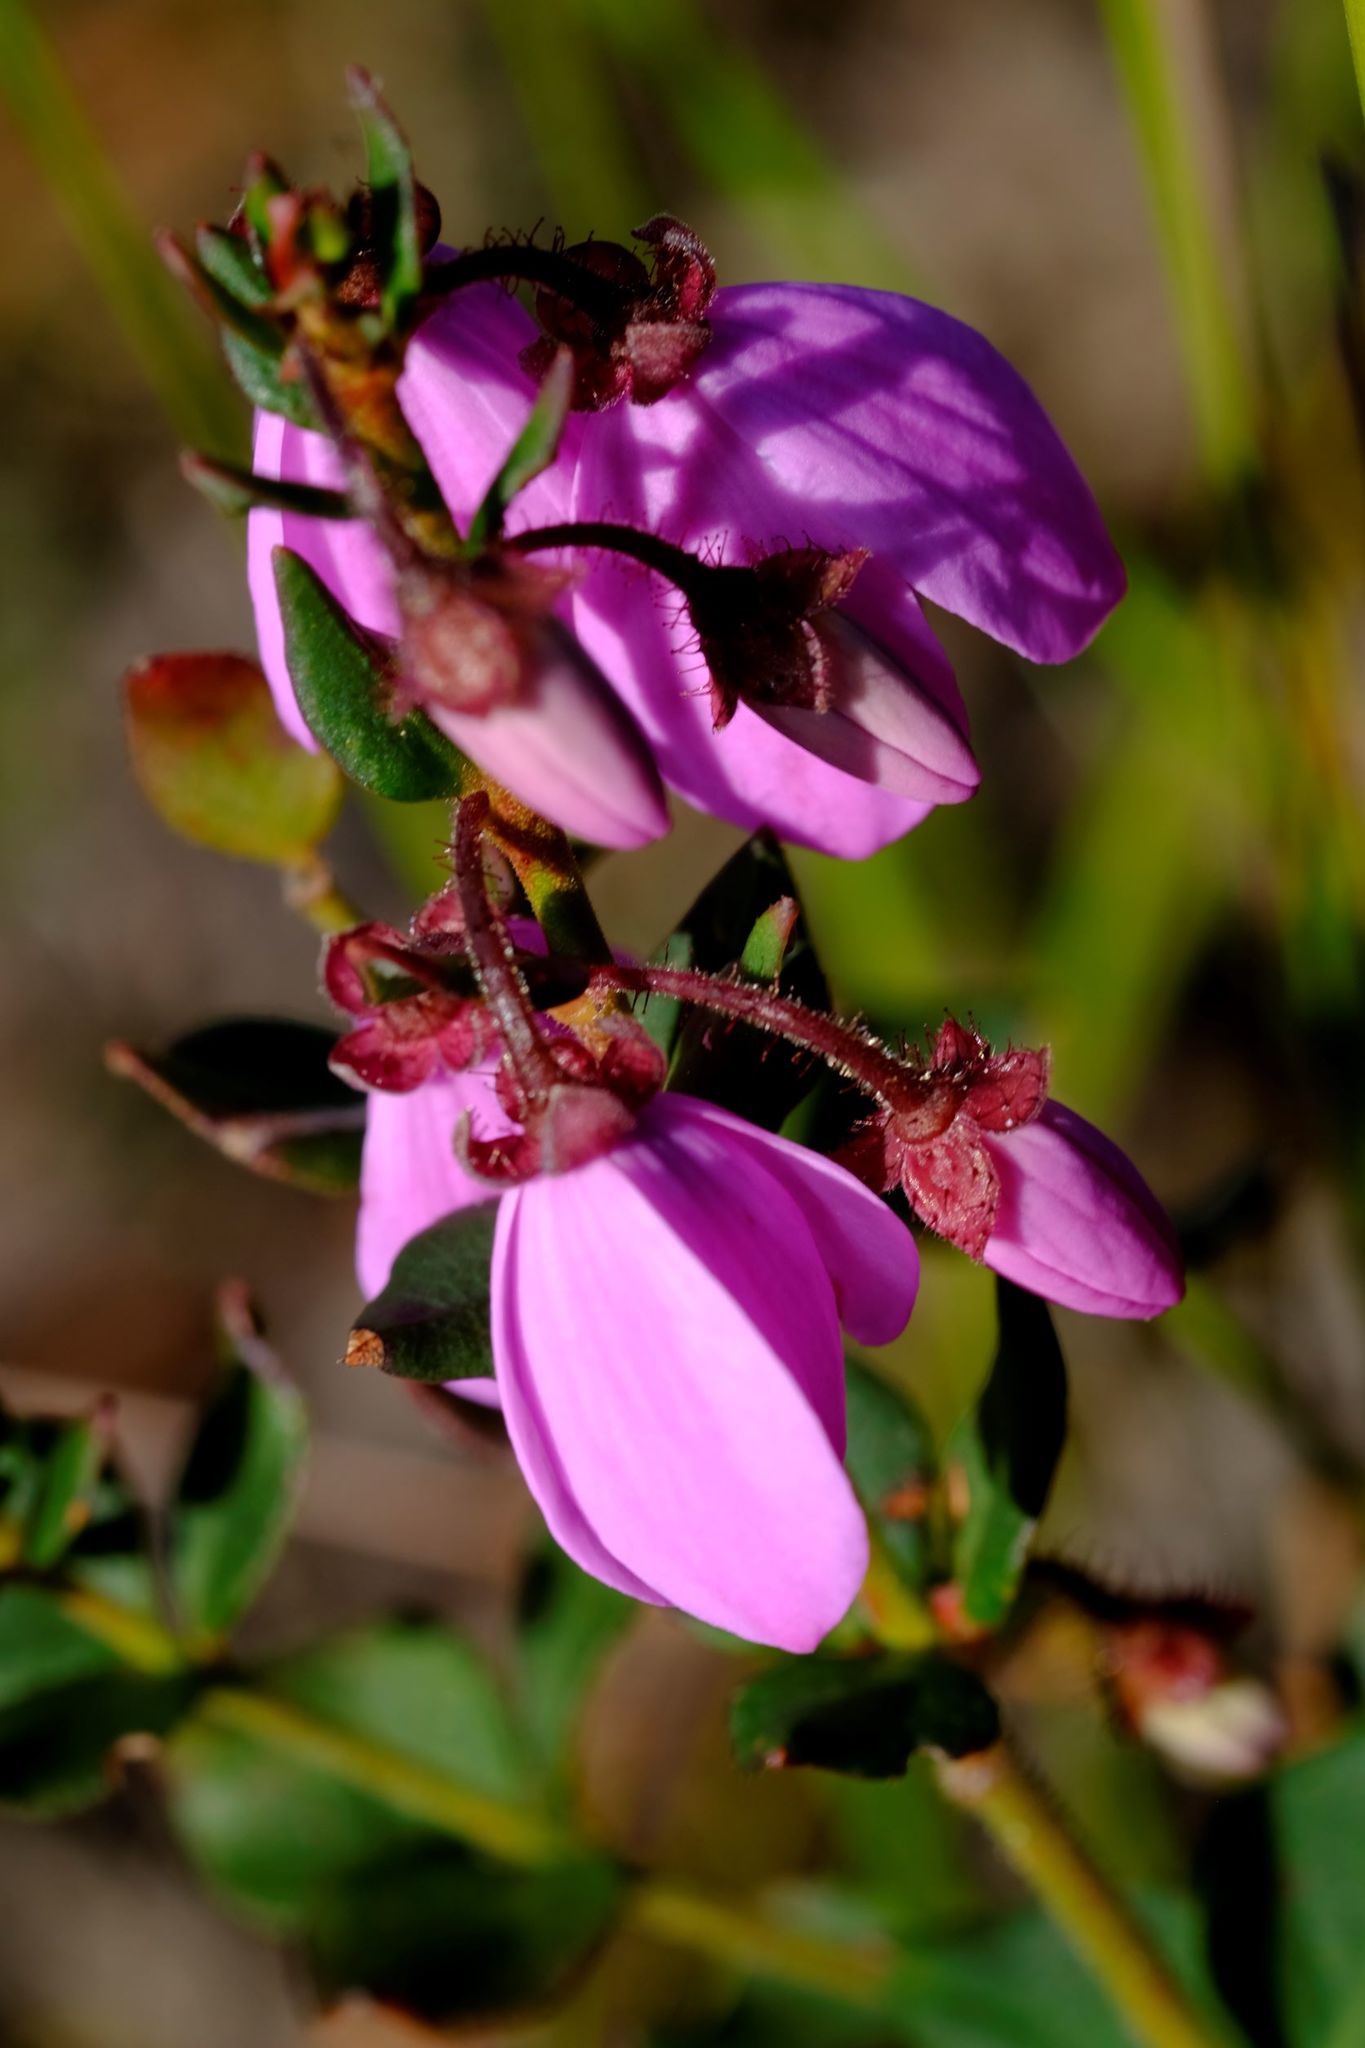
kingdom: Plantae
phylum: Tracheophyta
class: Magnoliopsida
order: Oxalidales
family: Elaeocarpaceae
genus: Tetratheca
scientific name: Tetratheca ciliata
